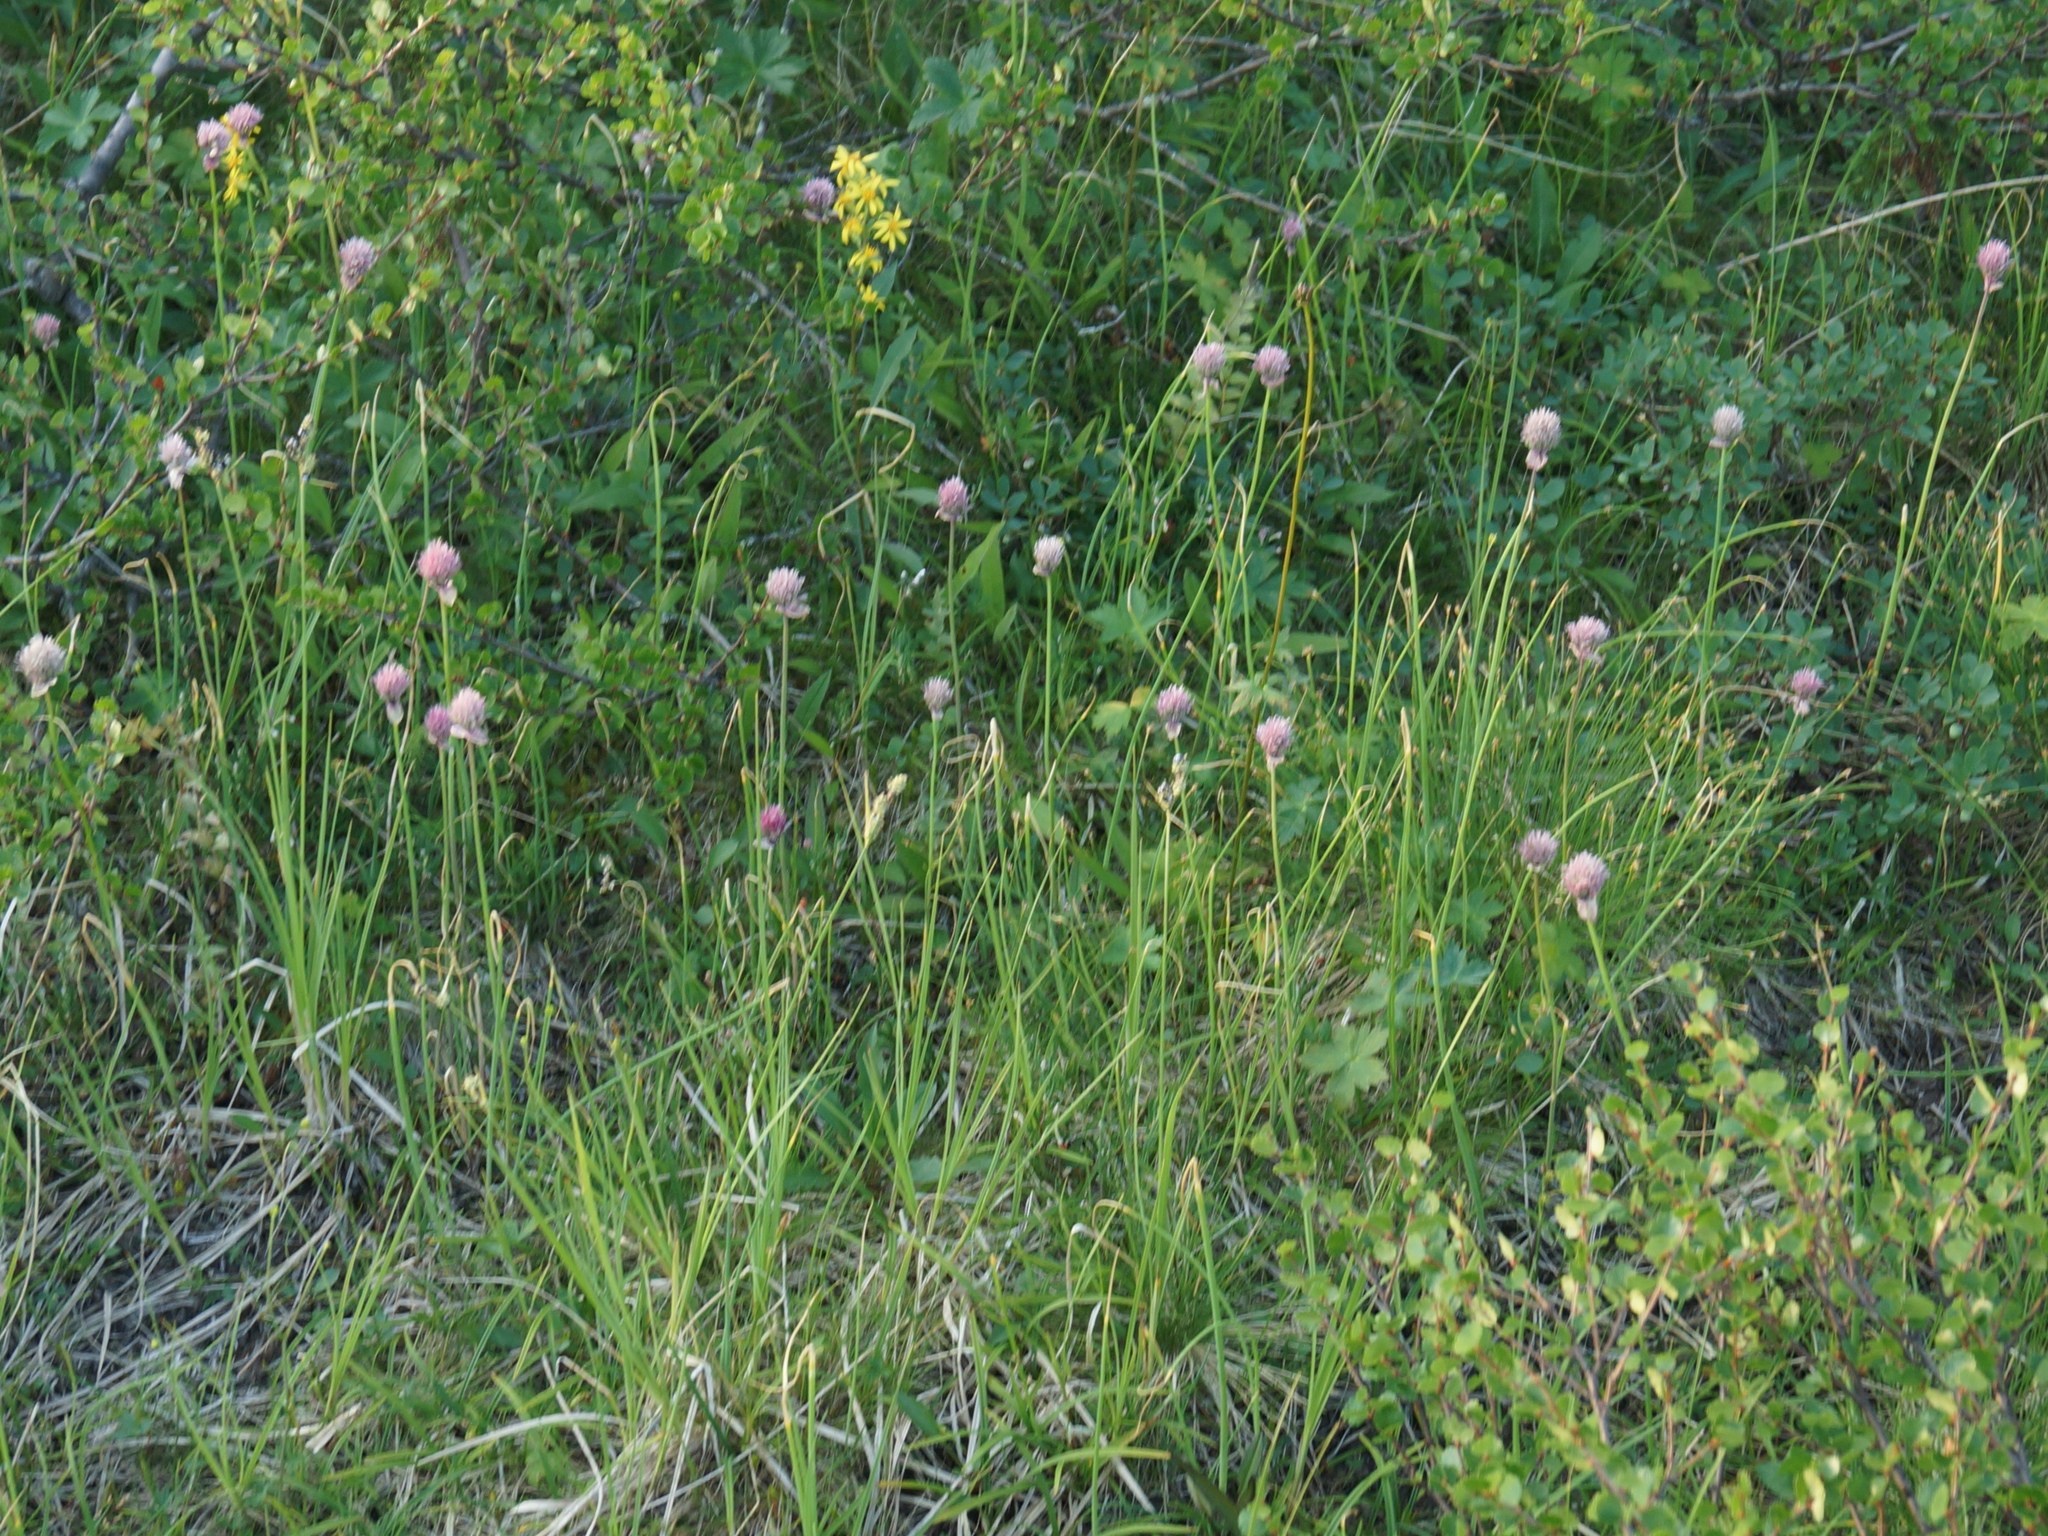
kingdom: Plantae
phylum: Tracheophyta
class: Liliopsida
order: Asparagales
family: Amaryllidaceae
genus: Allium
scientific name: Allium schoenoprasum
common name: Chives
